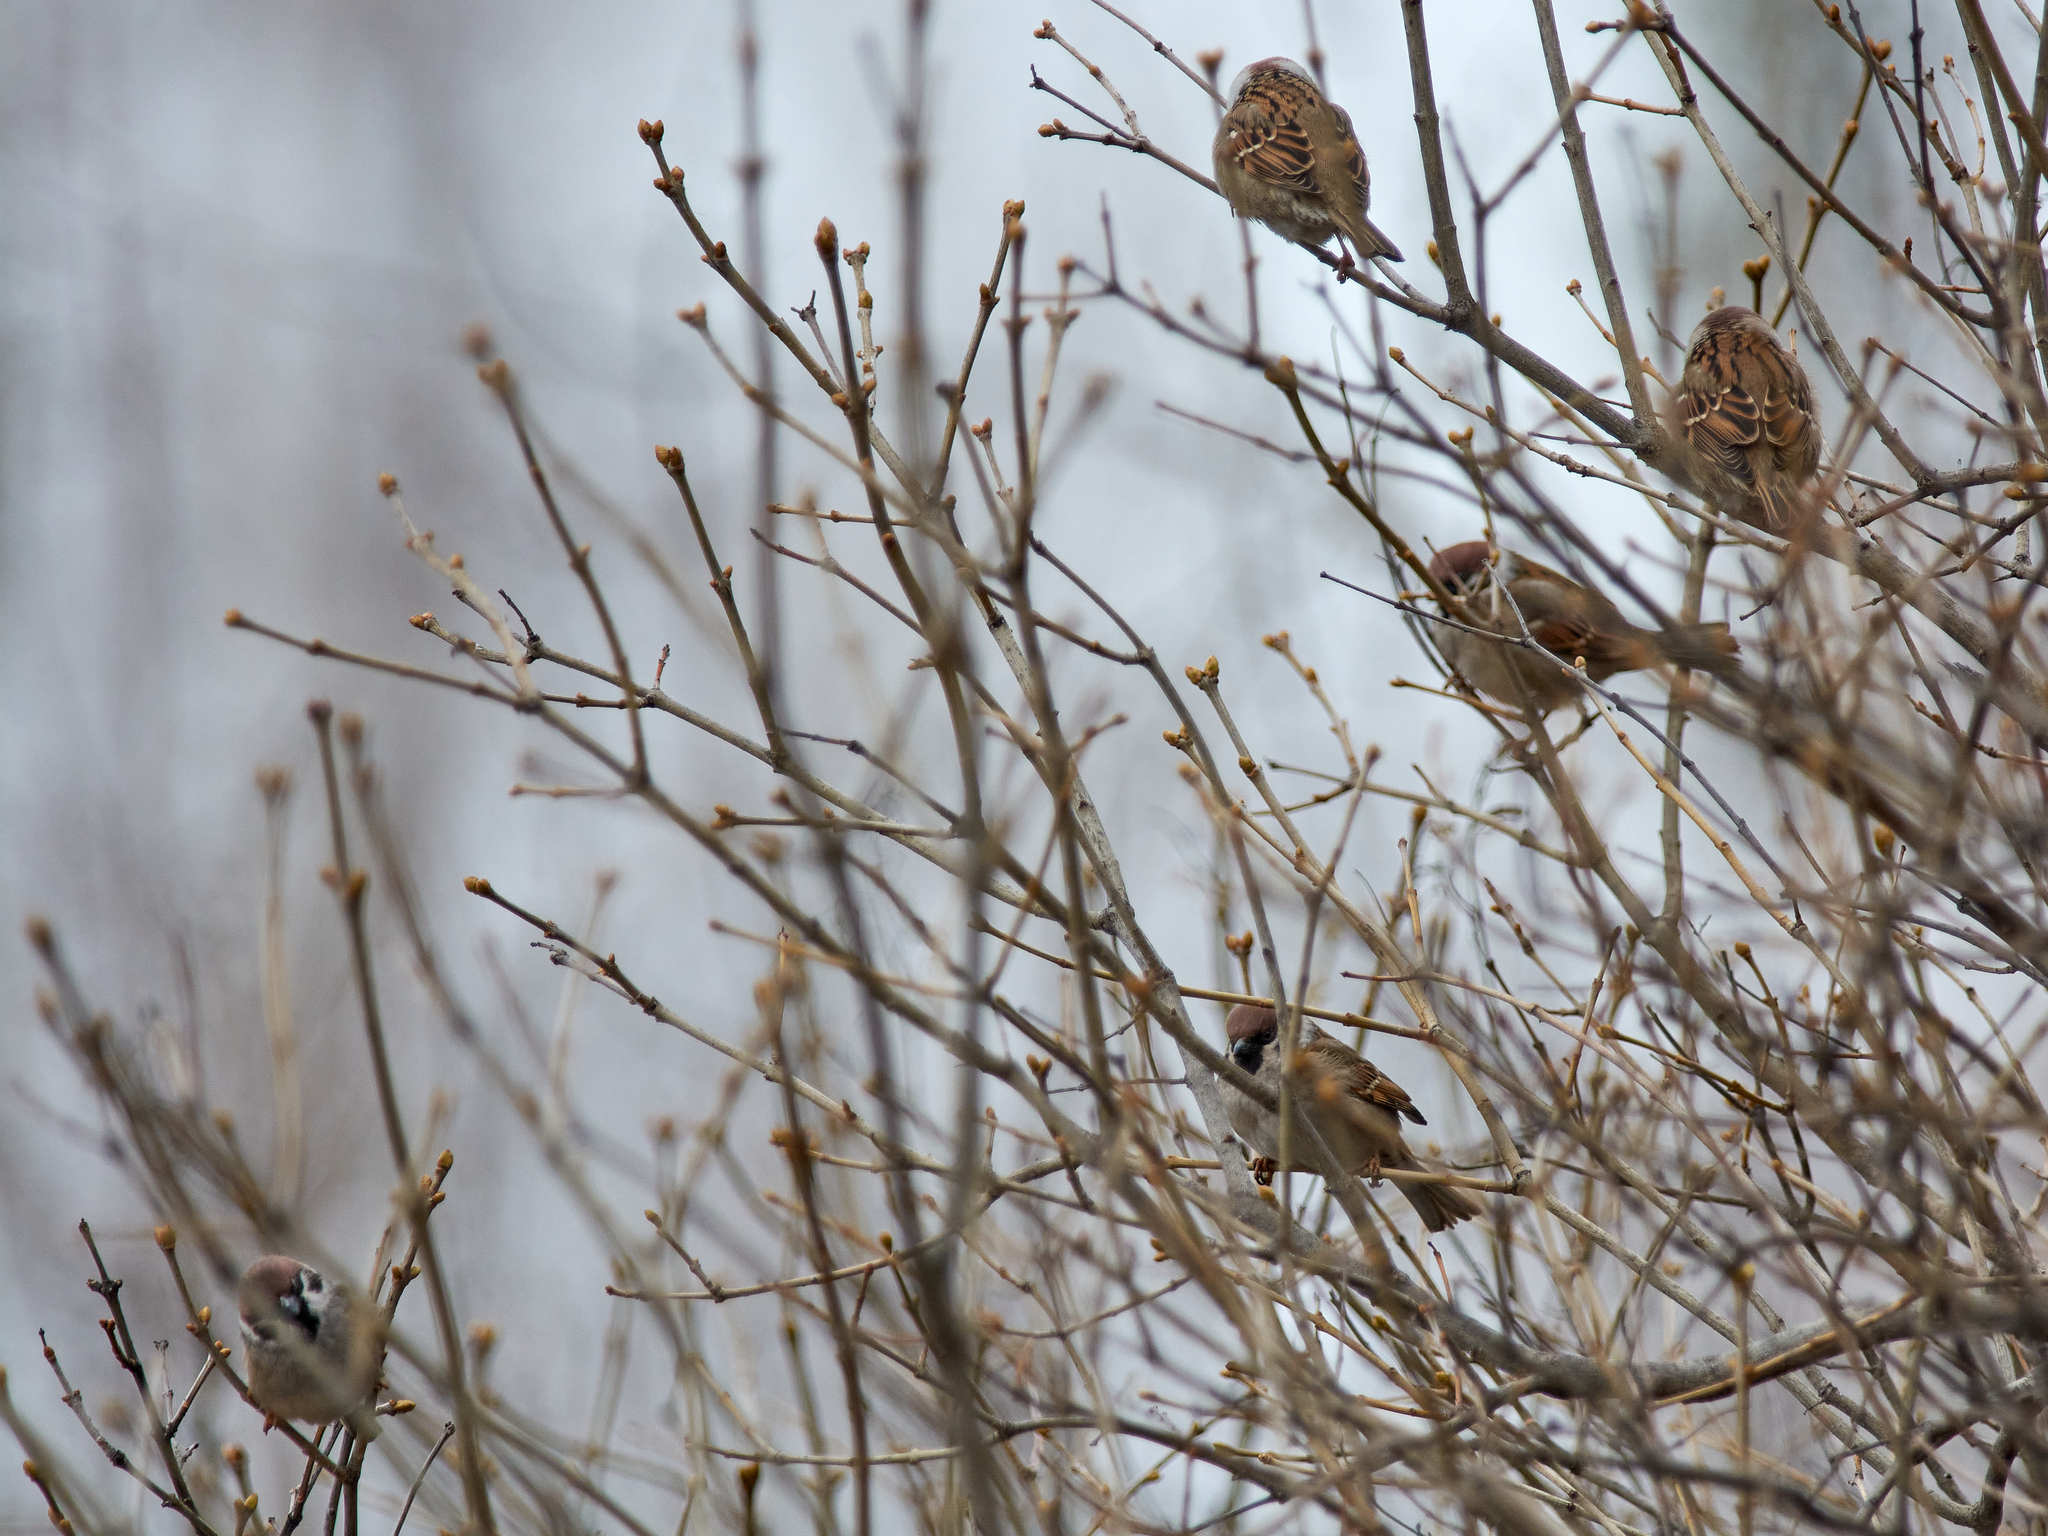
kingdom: Animalia
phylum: Chordata
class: Aves
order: Passeriformes
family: Passeridae
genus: Passer
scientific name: Passer montanus
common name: Eurasian tree sparrow
